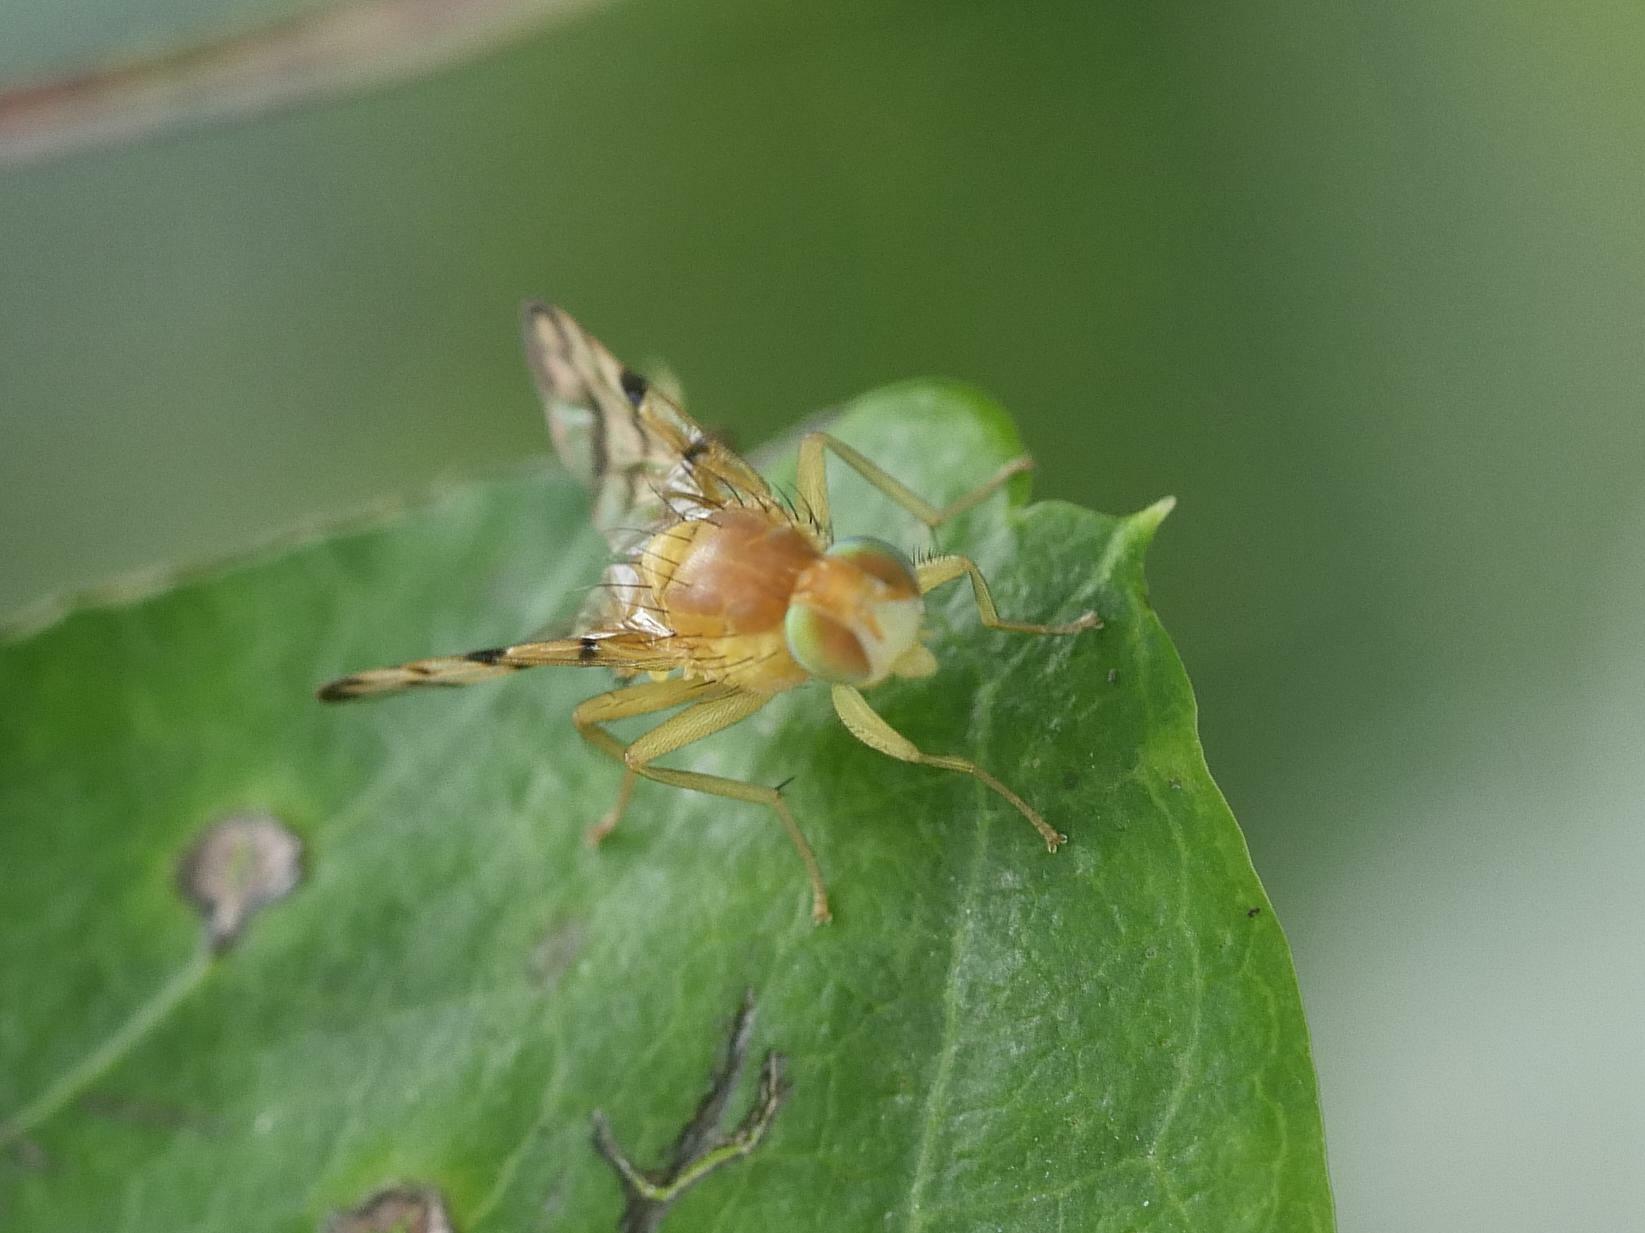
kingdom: Animalia
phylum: Arthropoda
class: Insecta
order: Diptera
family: Tephritidae
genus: Rhagoletis
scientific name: Rhagoletis basiola
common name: Rose hip fly
